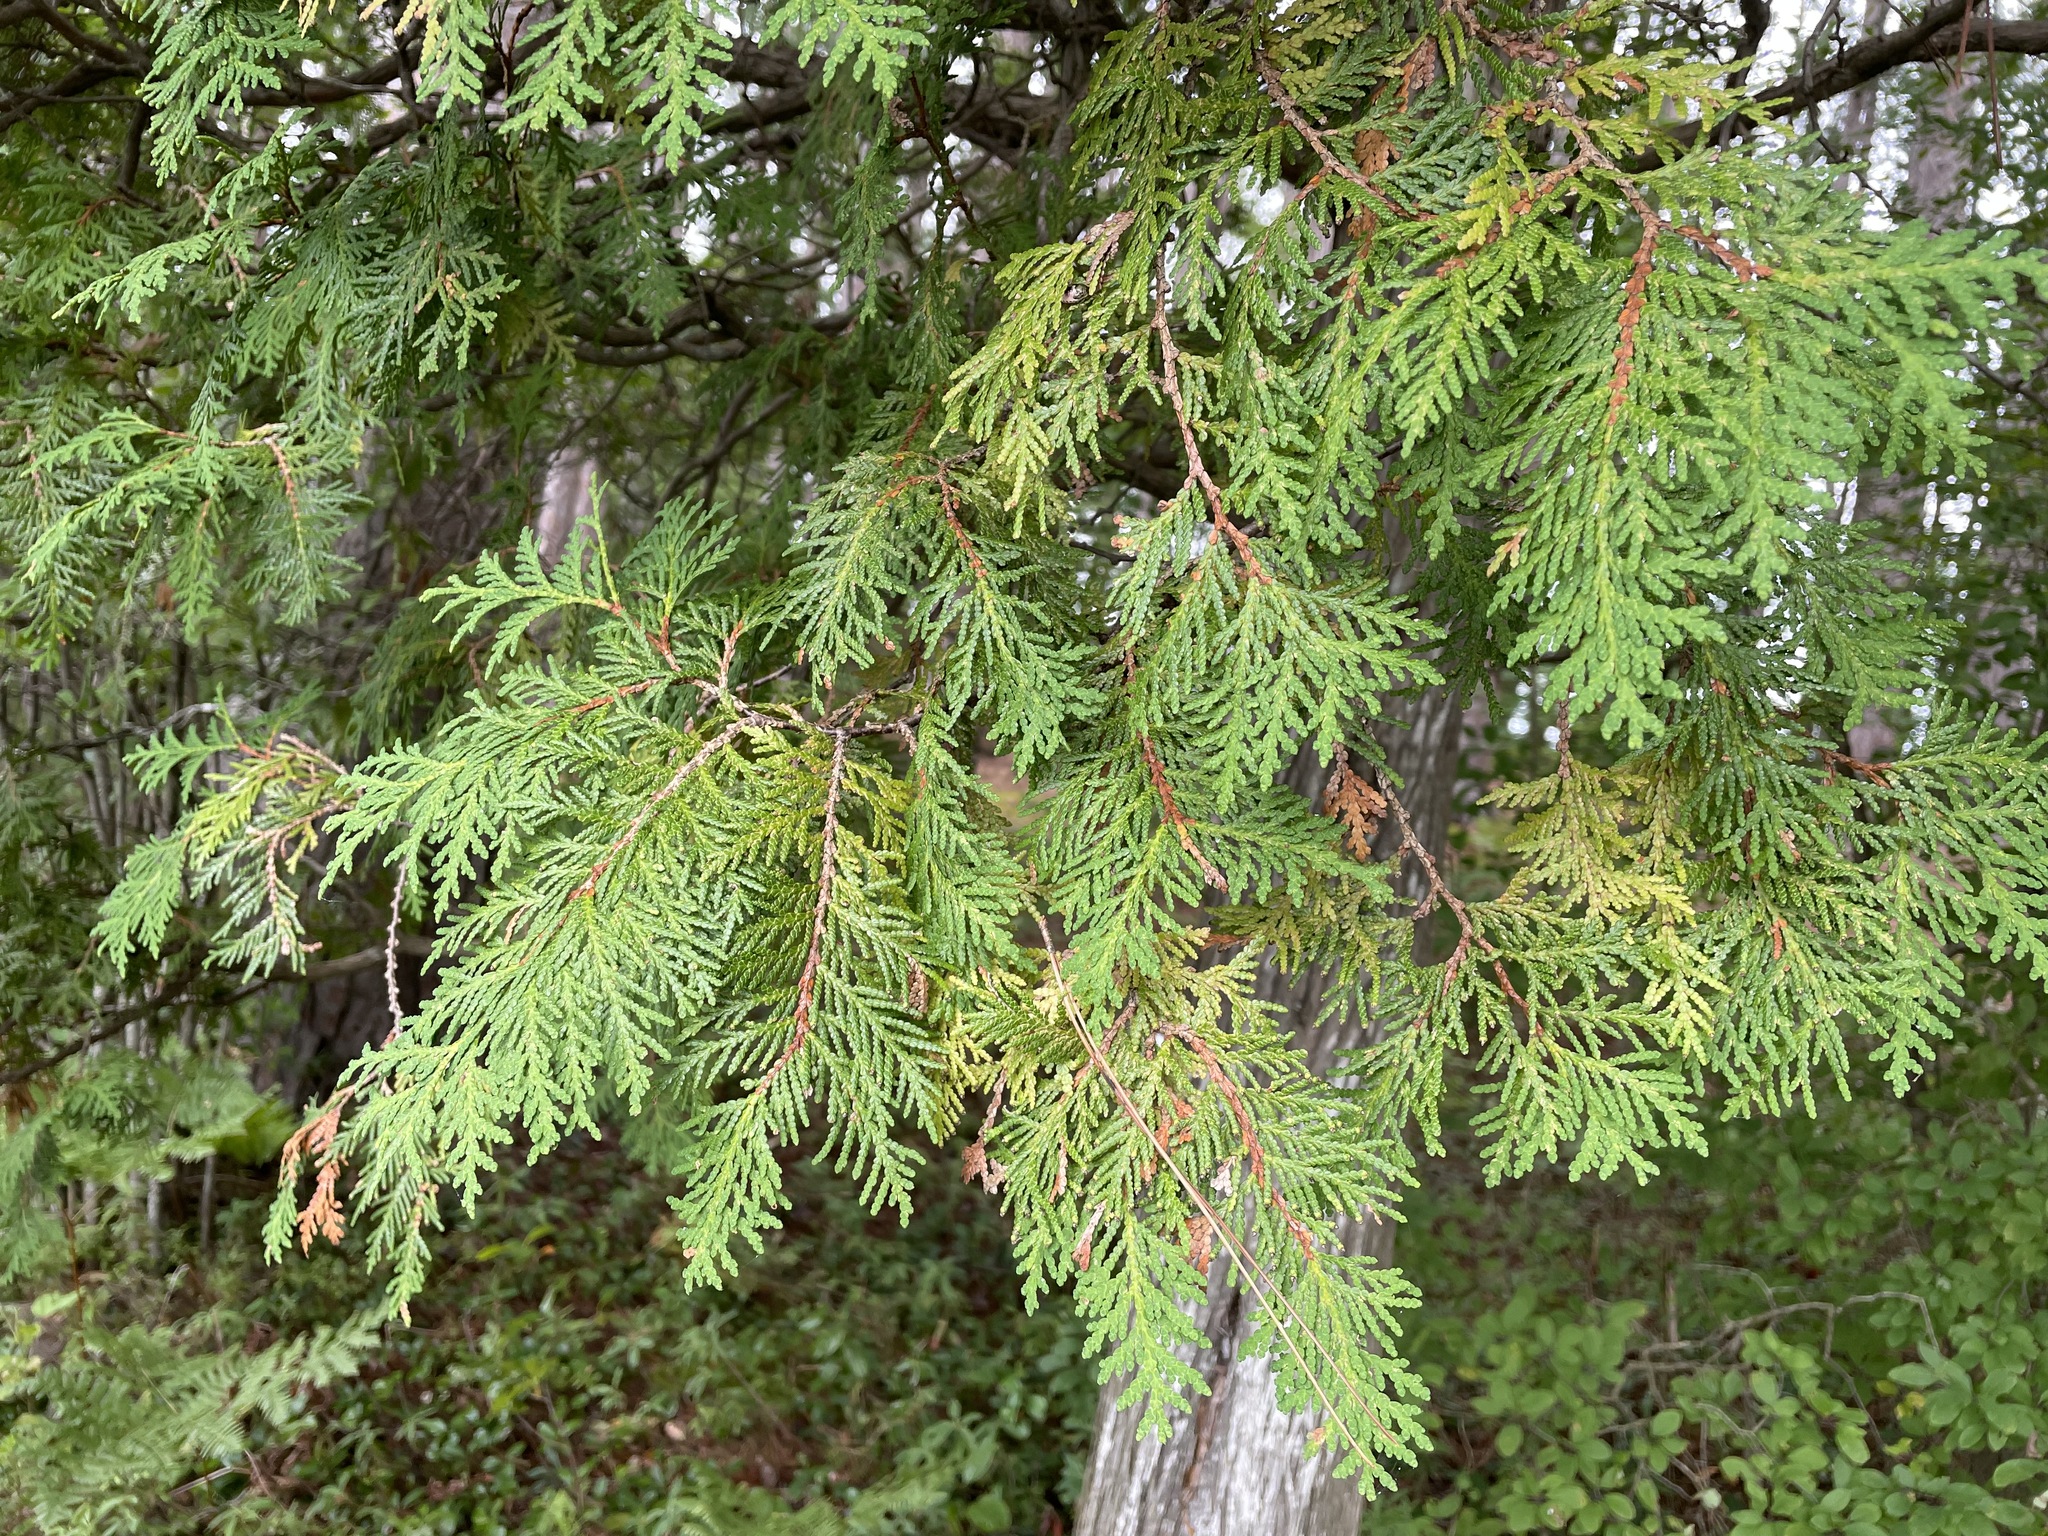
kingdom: Plantae
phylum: Tracheophyta
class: Pinopsida
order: Pinales
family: Cupressaceae
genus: Thuja
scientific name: Thuja occidentalis
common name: Northern white-cedar
